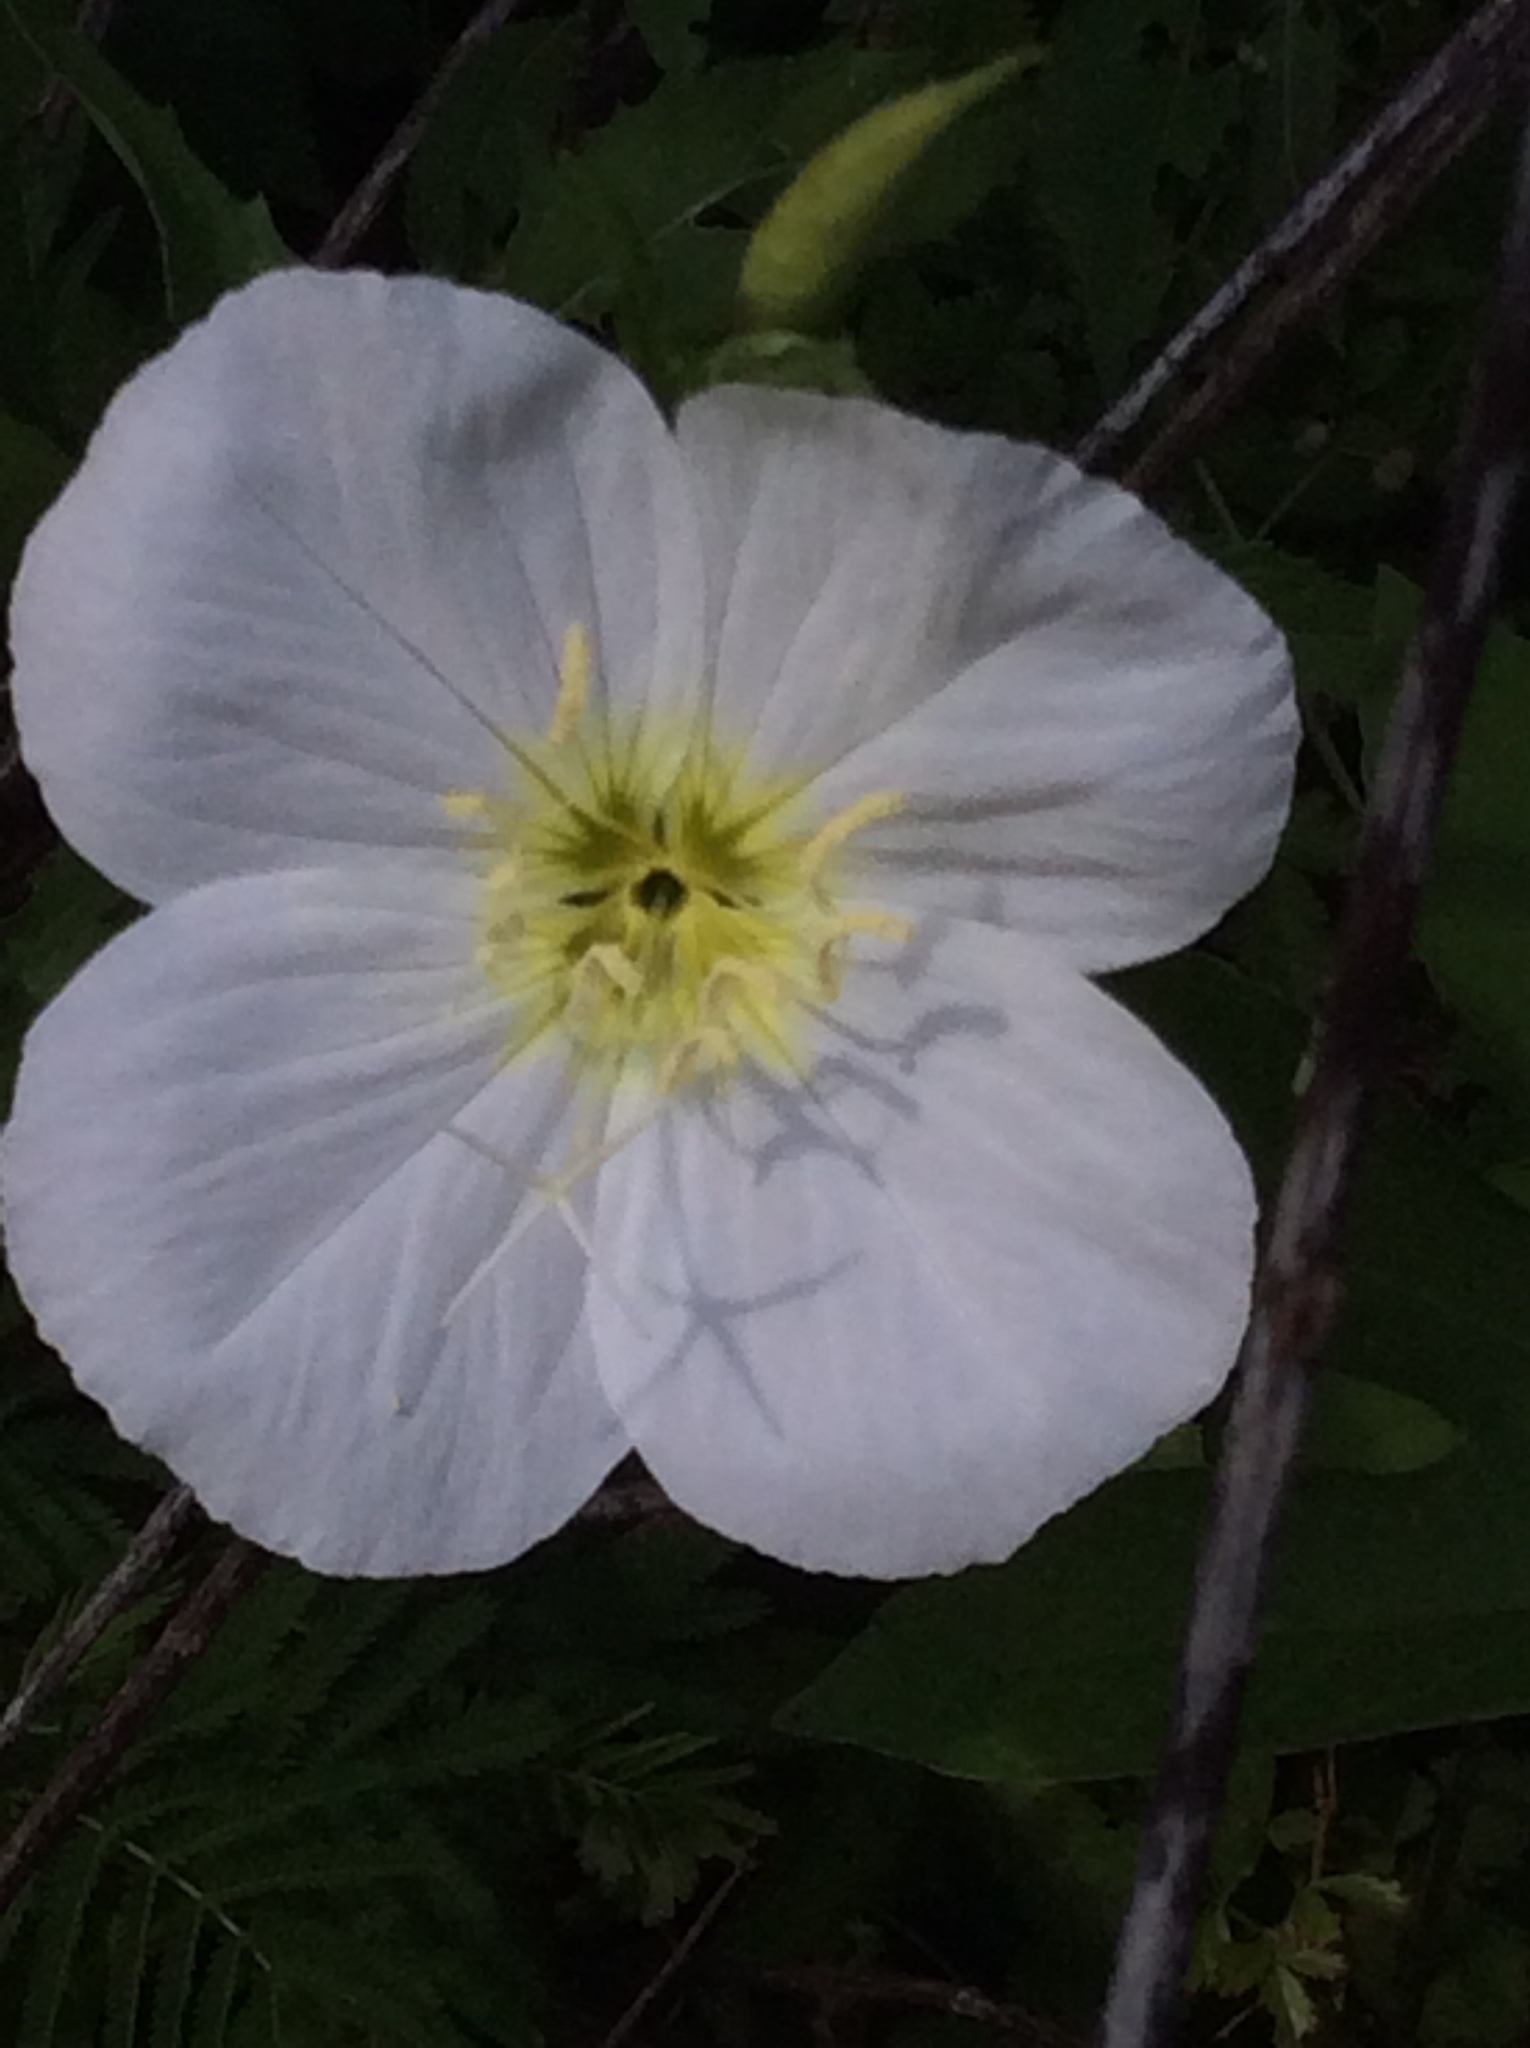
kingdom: Plantae
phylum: Tracheophyta
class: Magnoliopsida
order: Myrtales
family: Onagraceae
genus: Oenothera
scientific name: Oenothera speciosa
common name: White evening-primrose
